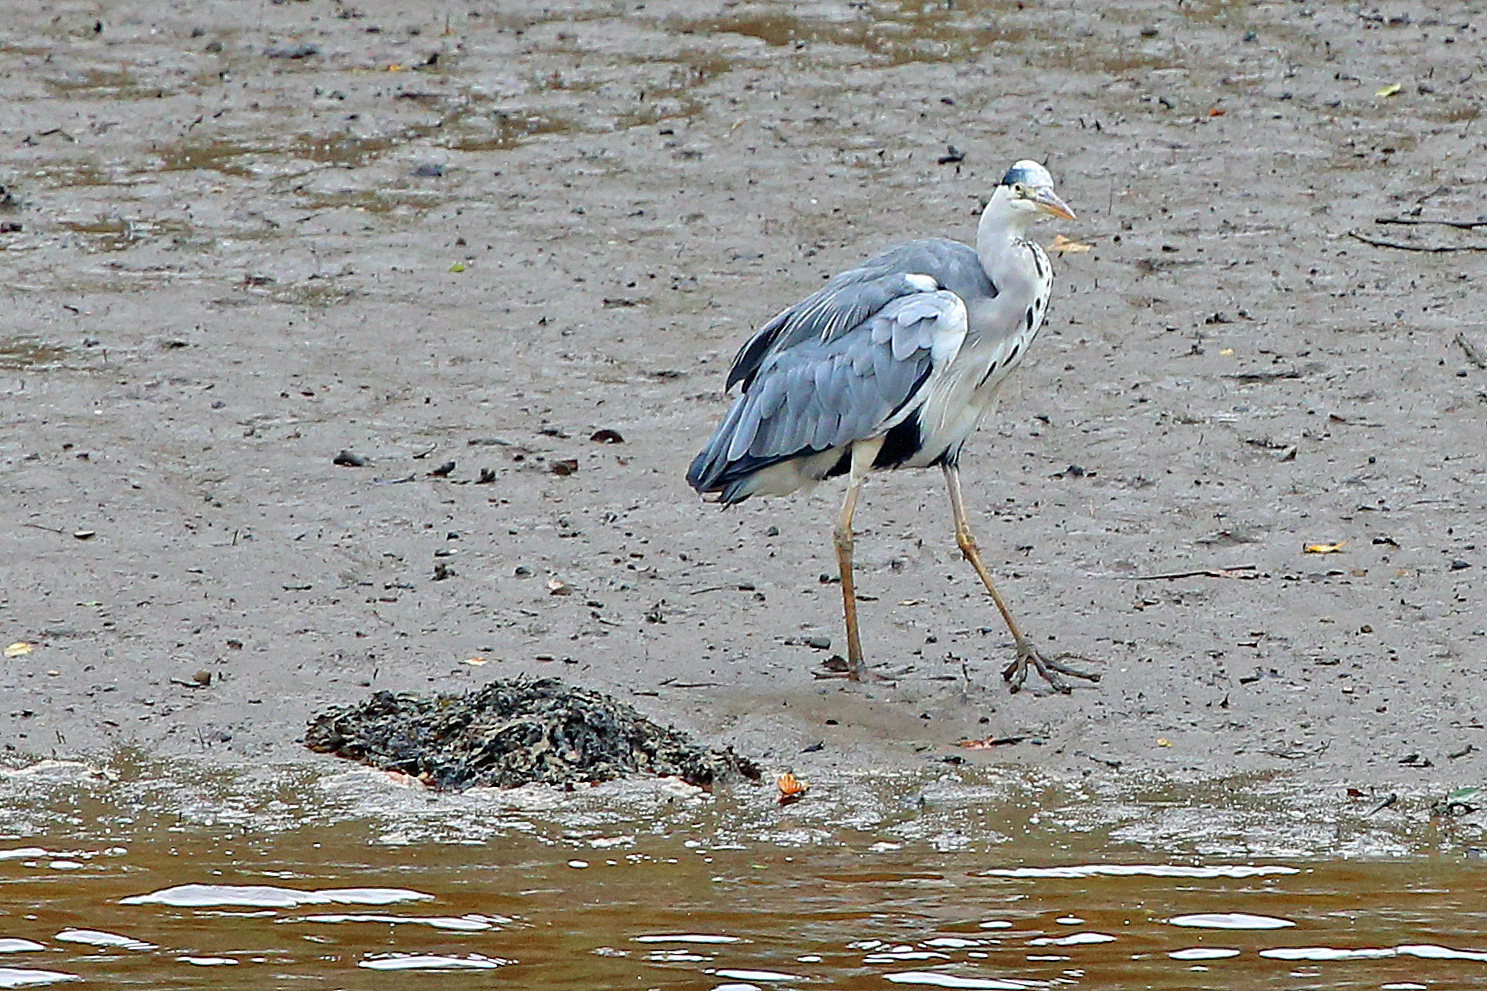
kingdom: Animalia
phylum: Chordata
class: Aves
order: Pelecaniformes
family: Ardeidae
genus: Ardea
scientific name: Ardea cinerea
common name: Grey heron
